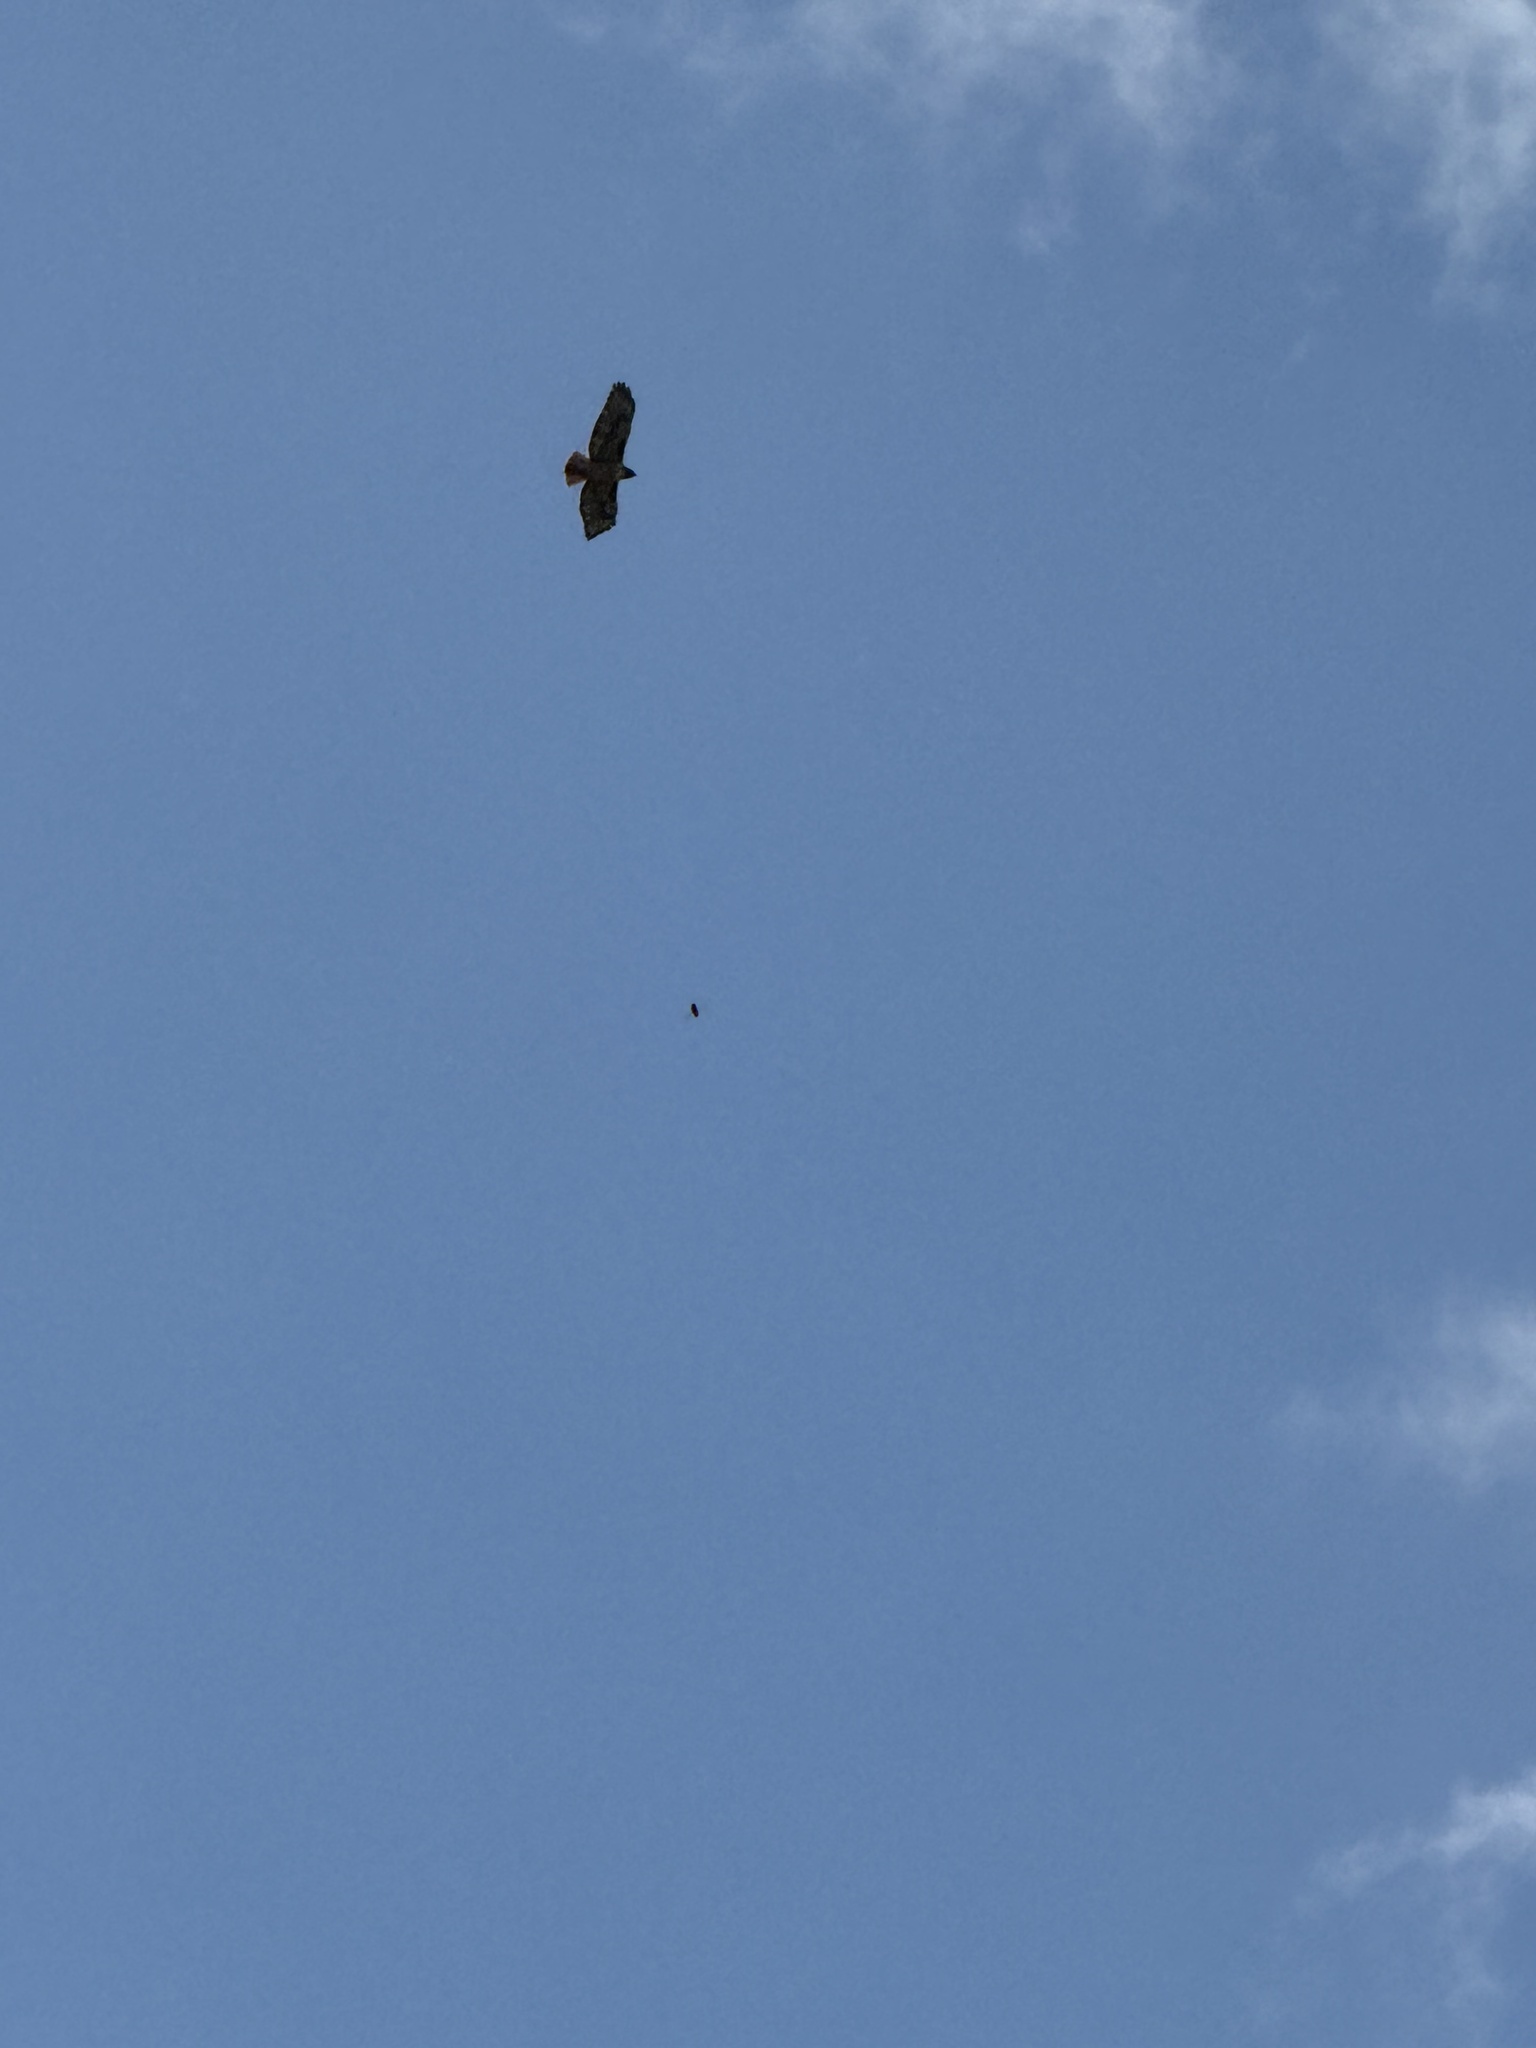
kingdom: Animalia
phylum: Chordata
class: Aves
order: Accipitriformes
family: Accipitridae
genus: Buteo
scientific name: Buteo jamaicensis
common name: Red-tailed hawk
